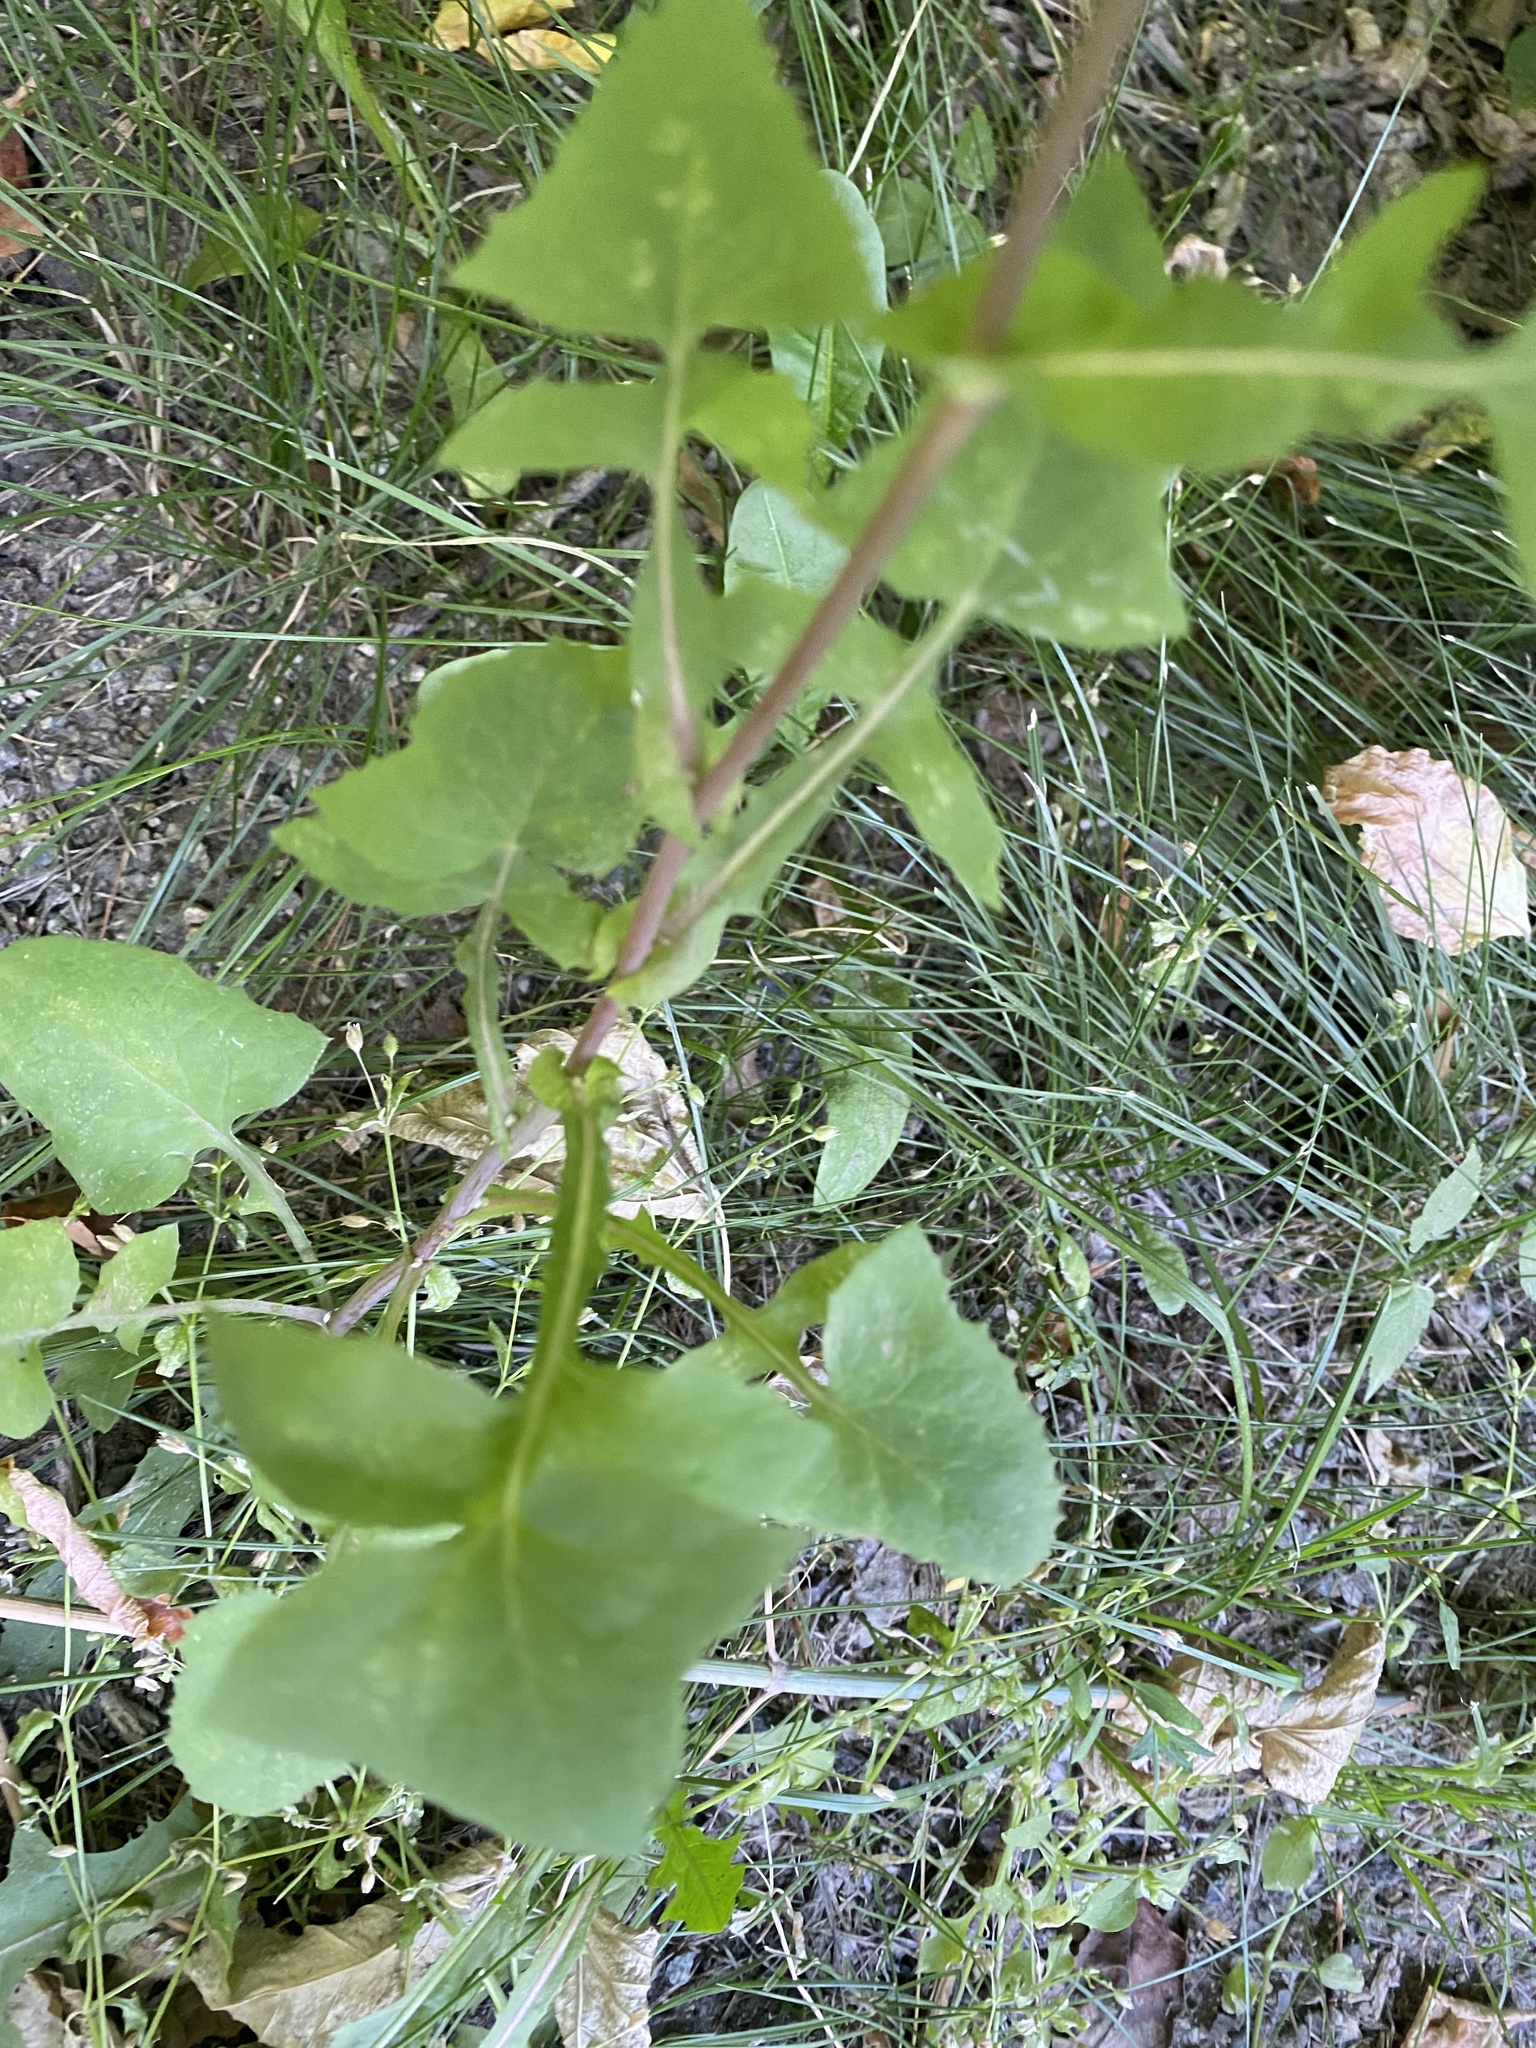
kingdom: Plantae
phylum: Tracheophyta
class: Magnoliopsida
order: Asterales
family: Asteraceae
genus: Sonchus
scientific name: Sonchus oleraceus
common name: Common sowthistle
